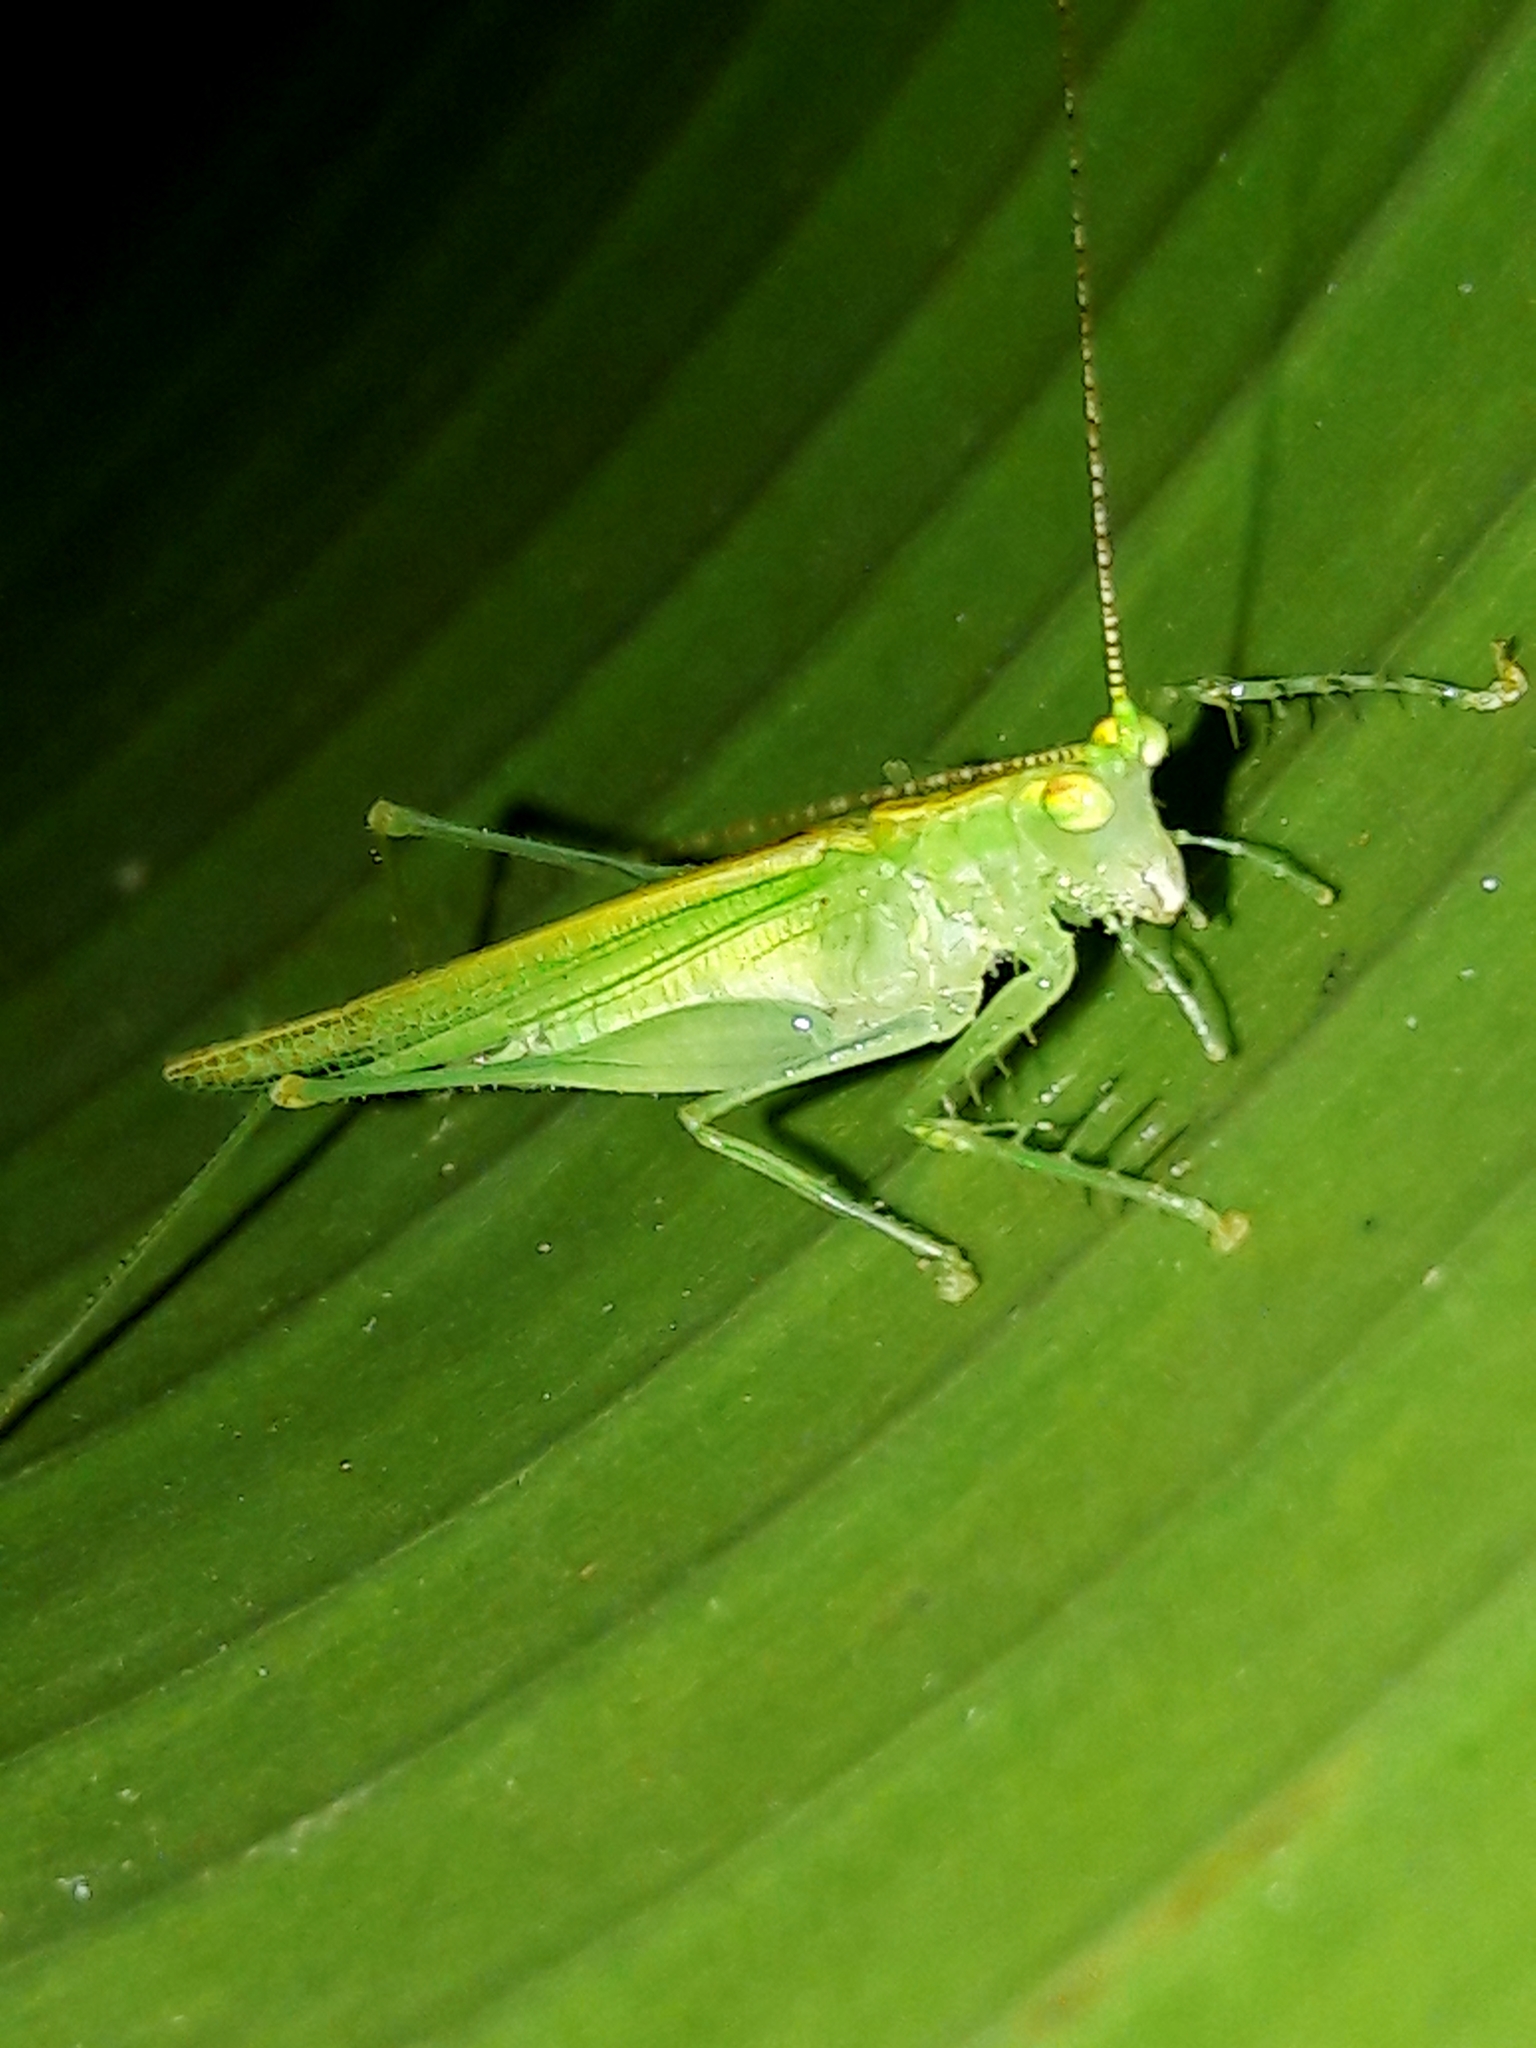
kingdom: Animalia
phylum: Arthropoda
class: Insecta
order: Orthoptera
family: Tettigoniidae
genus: Phlugis
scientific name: Phlugis ocraceovittata
